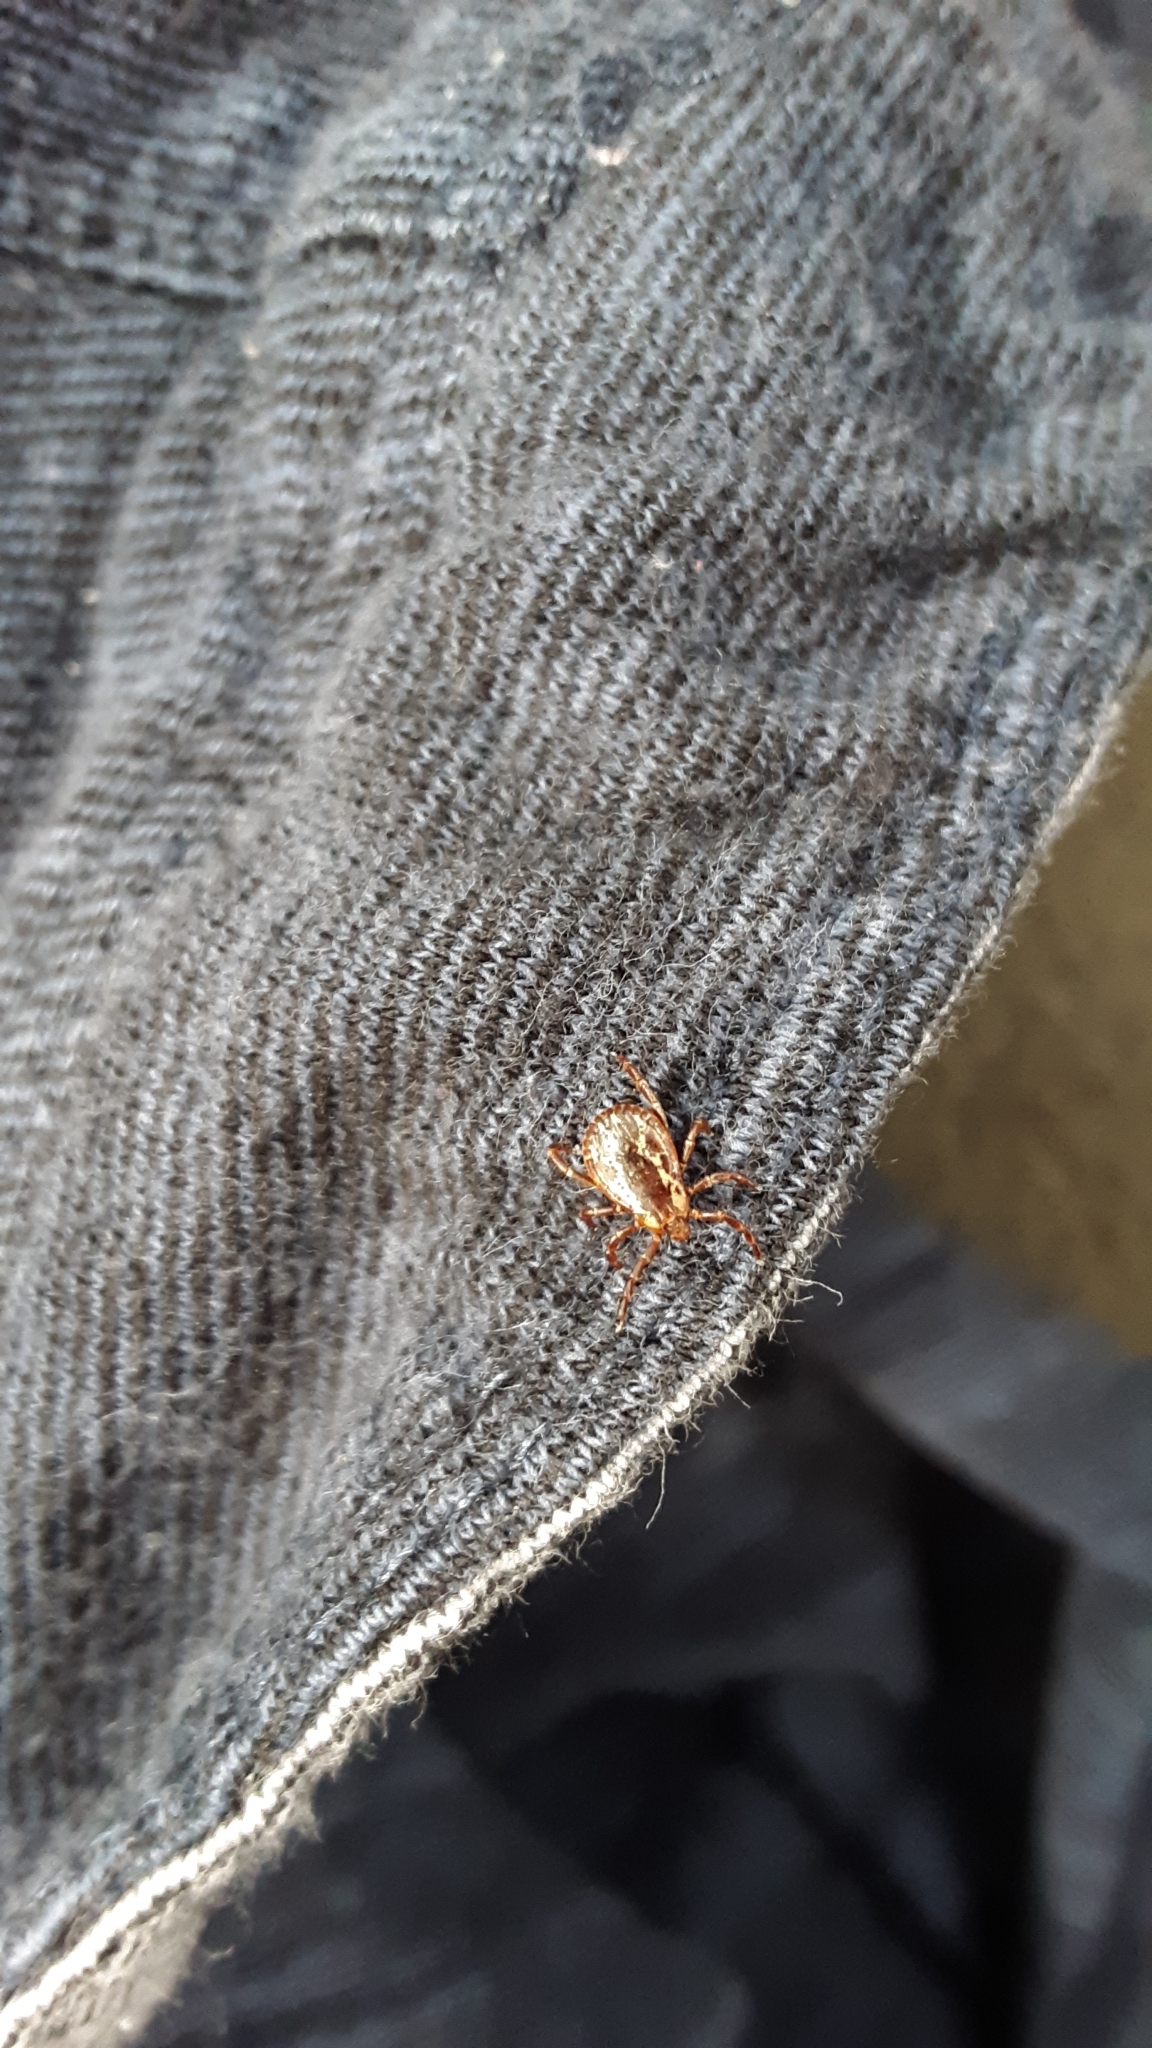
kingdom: Animalia
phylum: Arthropoda
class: Arachnida
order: Ixodida
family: Ixodidae
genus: Dermacentor
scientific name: Dermacentor variabilis
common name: American dog tick
